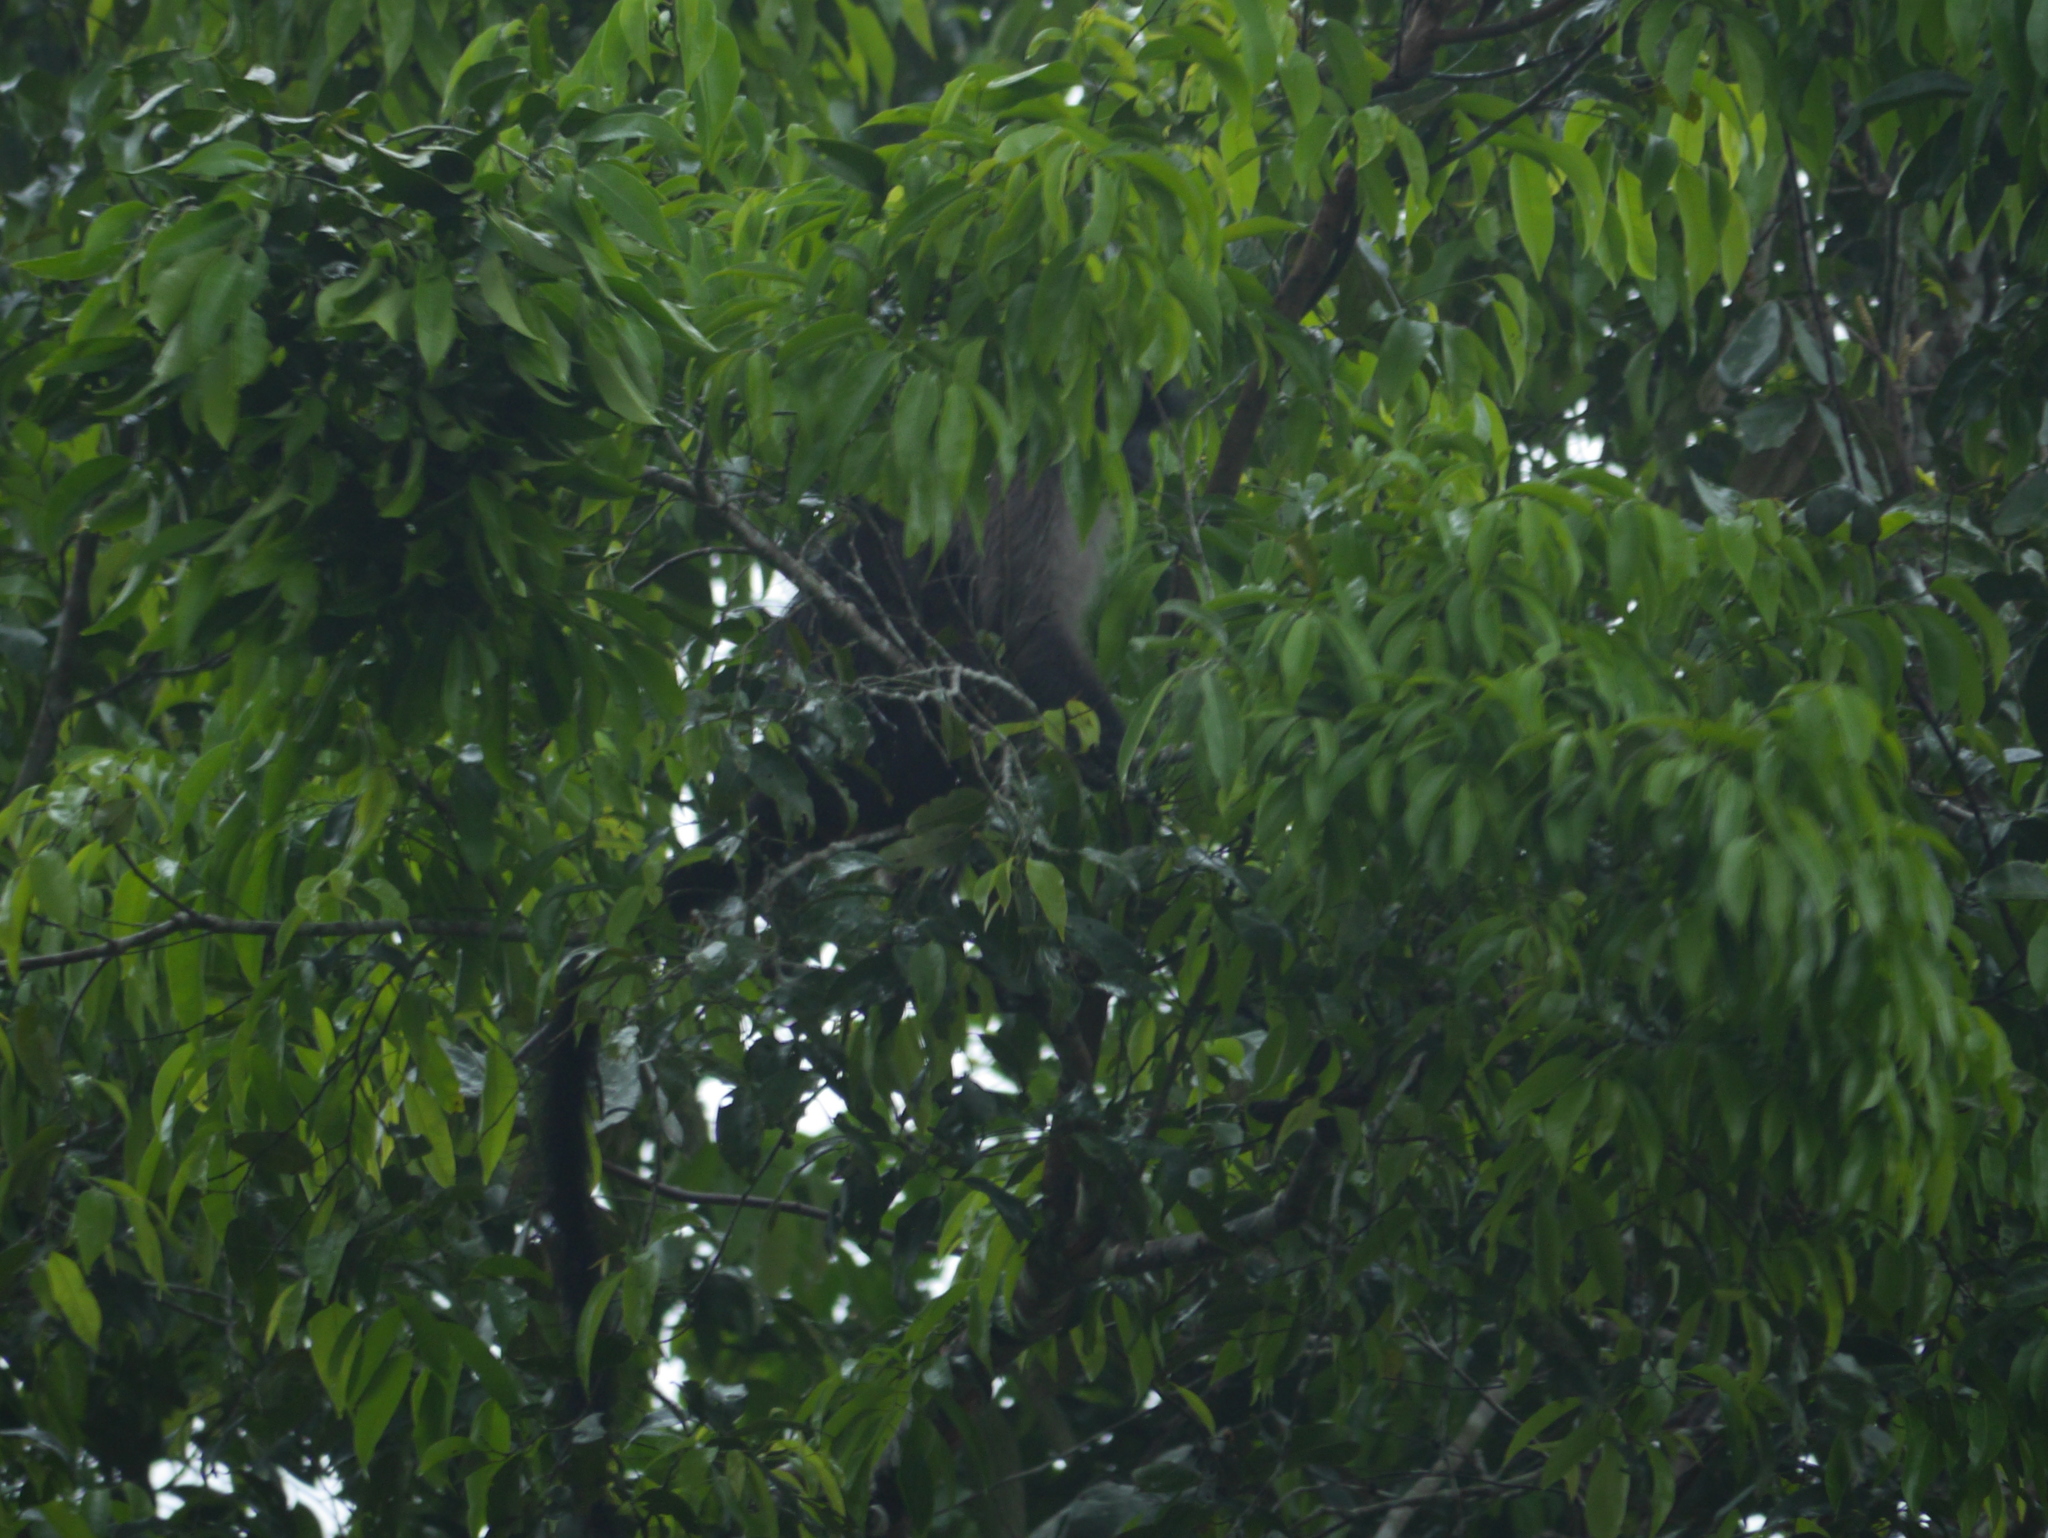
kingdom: Animalia
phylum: Chordata
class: Mammalia
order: Primates
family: Cercopithecidae
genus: Lophocebus
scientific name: Lophocebus albigena
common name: Gray-cheeked mangabey
